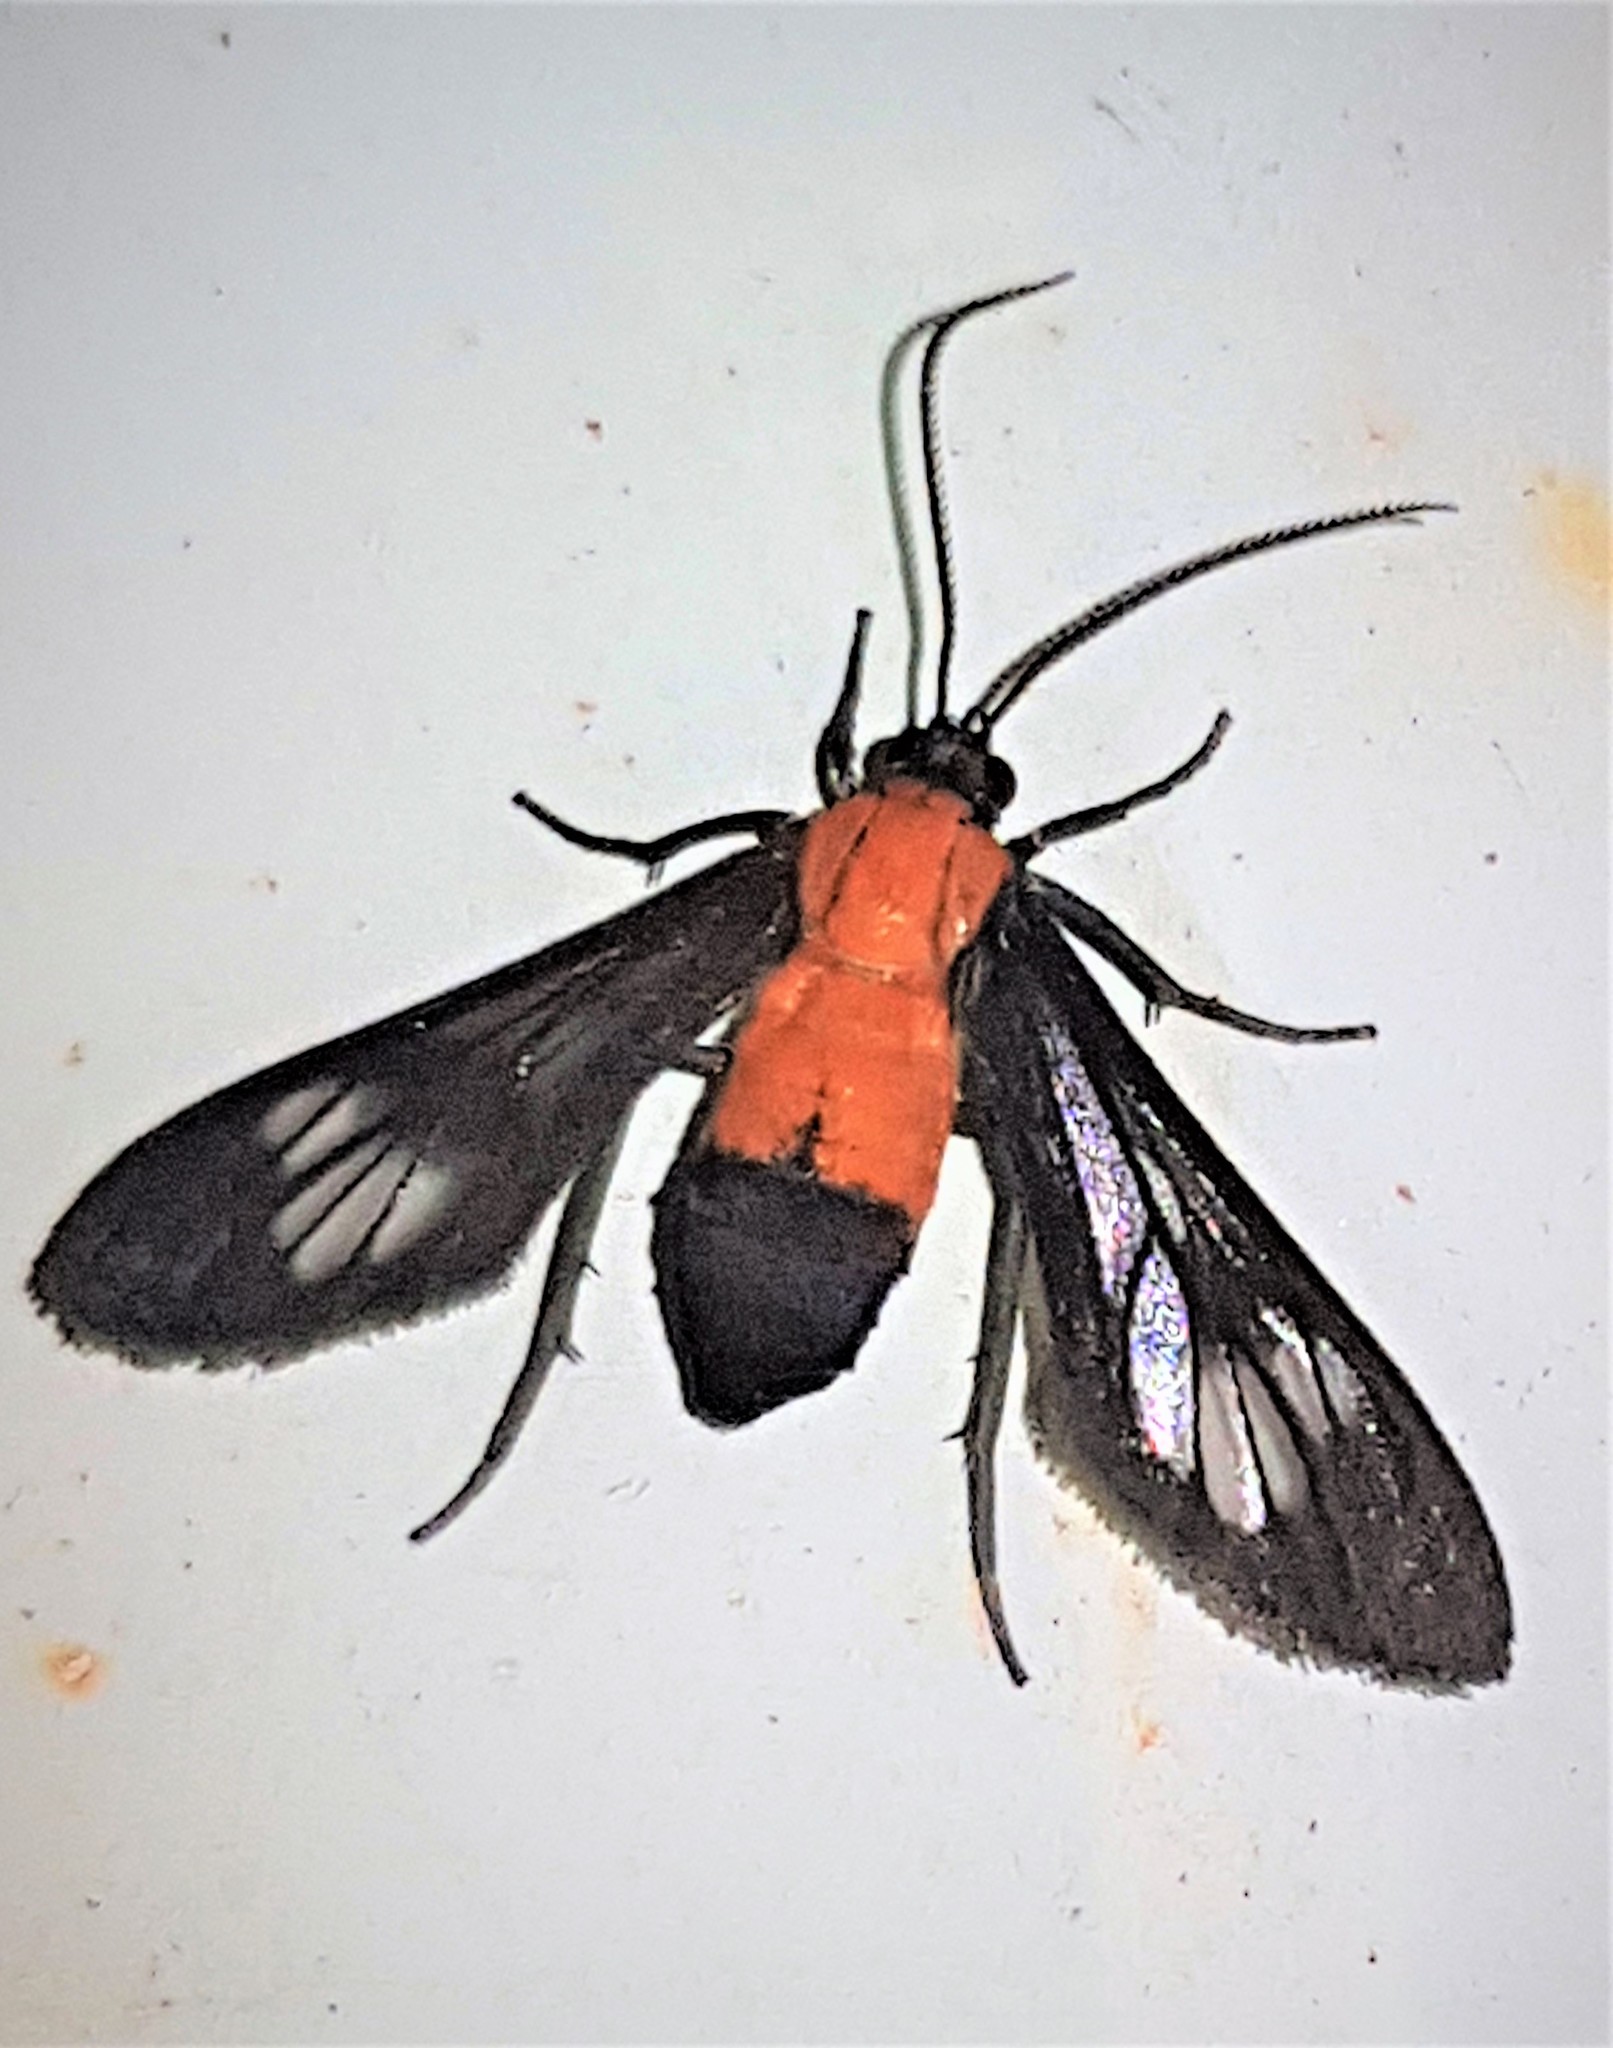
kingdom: Animalia
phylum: Arthropoda
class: Insecta
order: Lepidoptera
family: Erebidae
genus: Holophaea
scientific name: Holophaea vesta
